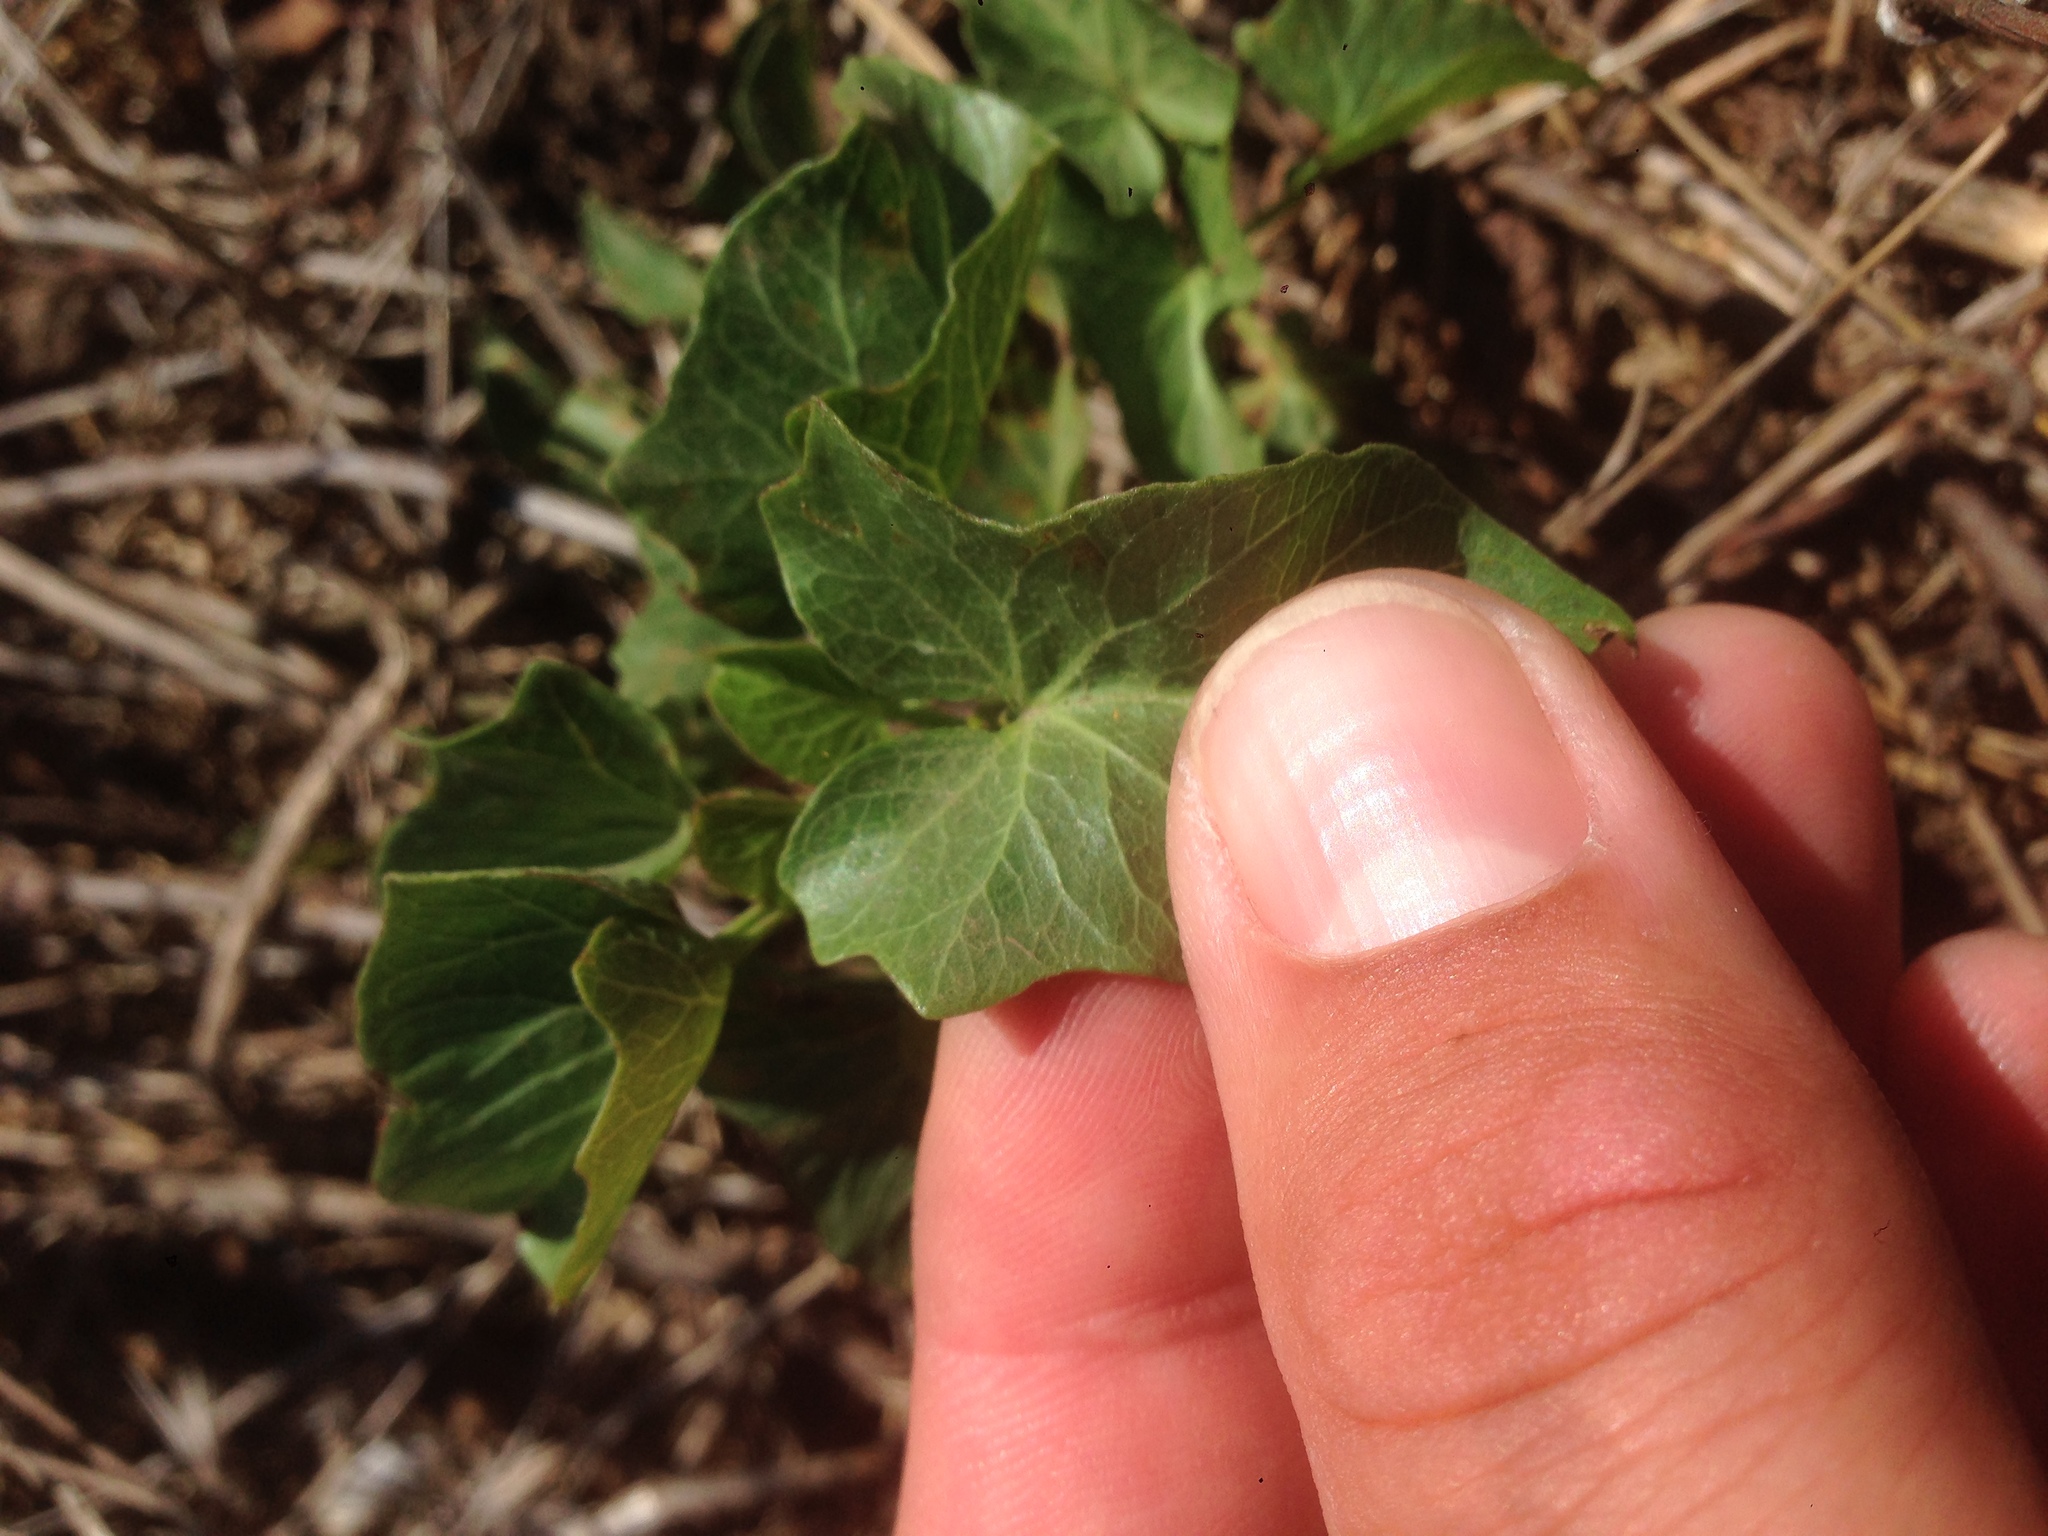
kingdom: Plantae
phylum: Tracheophyta
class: Magnoliopsida
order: Solanales
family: Convolvulaceae
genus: Calystegia
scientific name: Calystegia macrostegia
